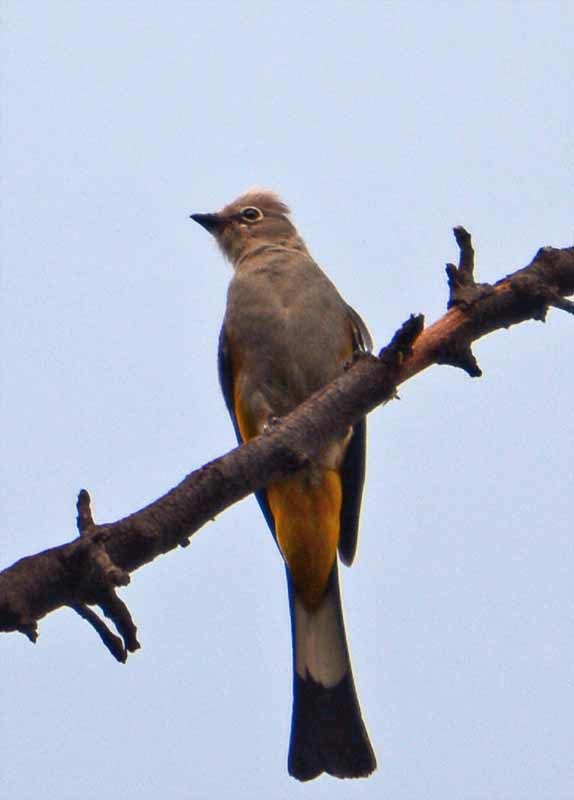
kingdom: Animalia
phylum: Chordata
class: Aves
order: Passeriformes
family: Ptilogonatidae
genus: Ptilogonys
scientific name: Ptilogonys cinereus
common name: Gray silky-flycatcher
